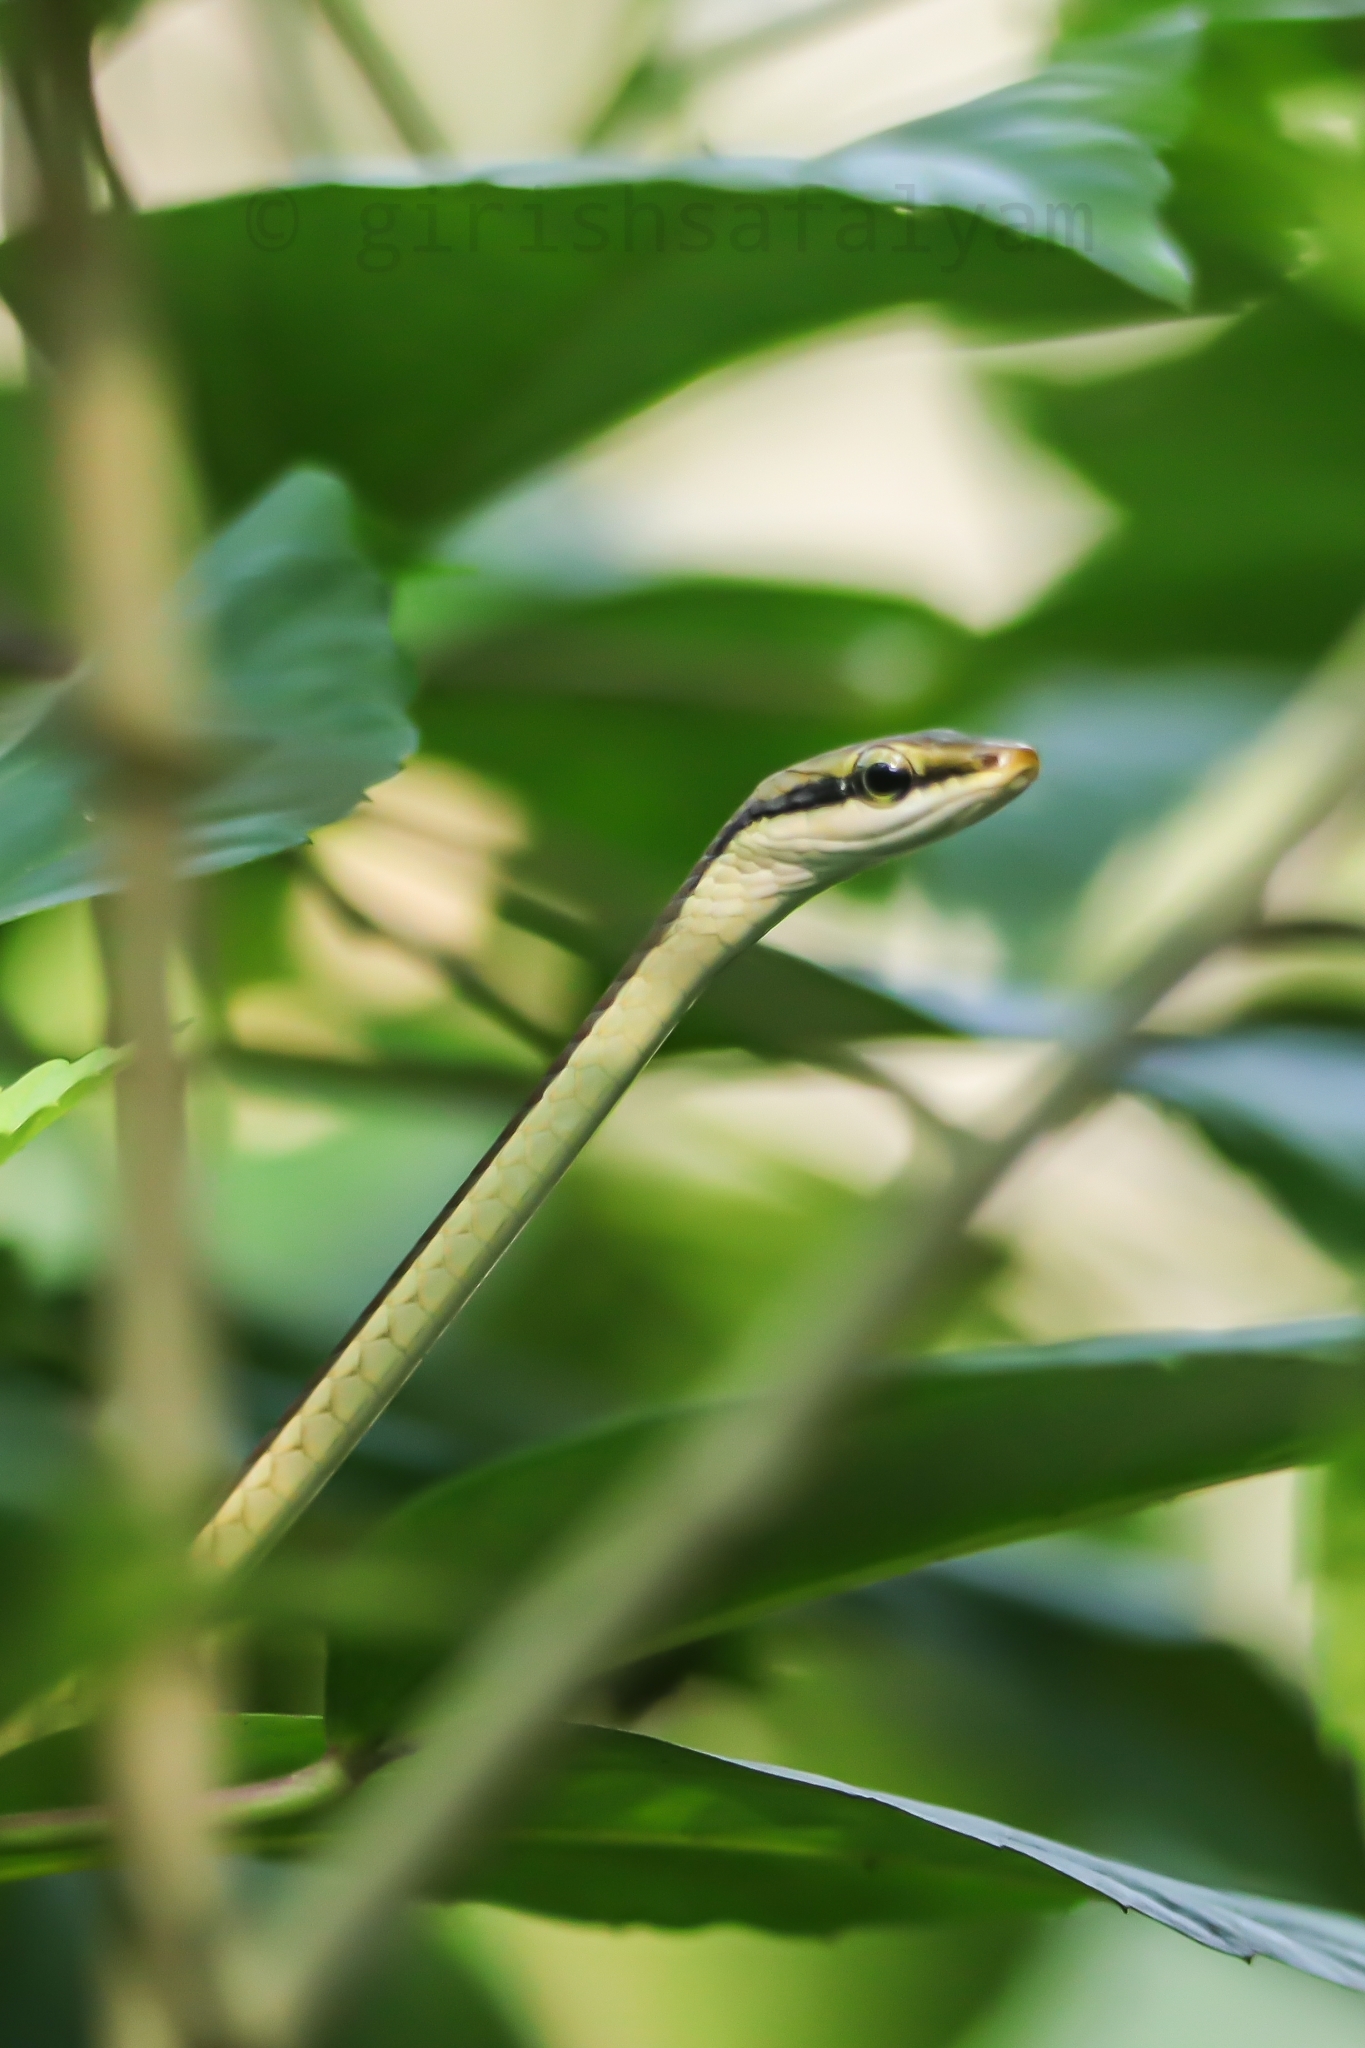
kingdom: Animalia
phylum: Chordata
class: Squamata
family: Colubridae
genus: Dendrelaphis
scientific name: Dendrelaphis girii
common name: Giri's bronzeback tree snake
